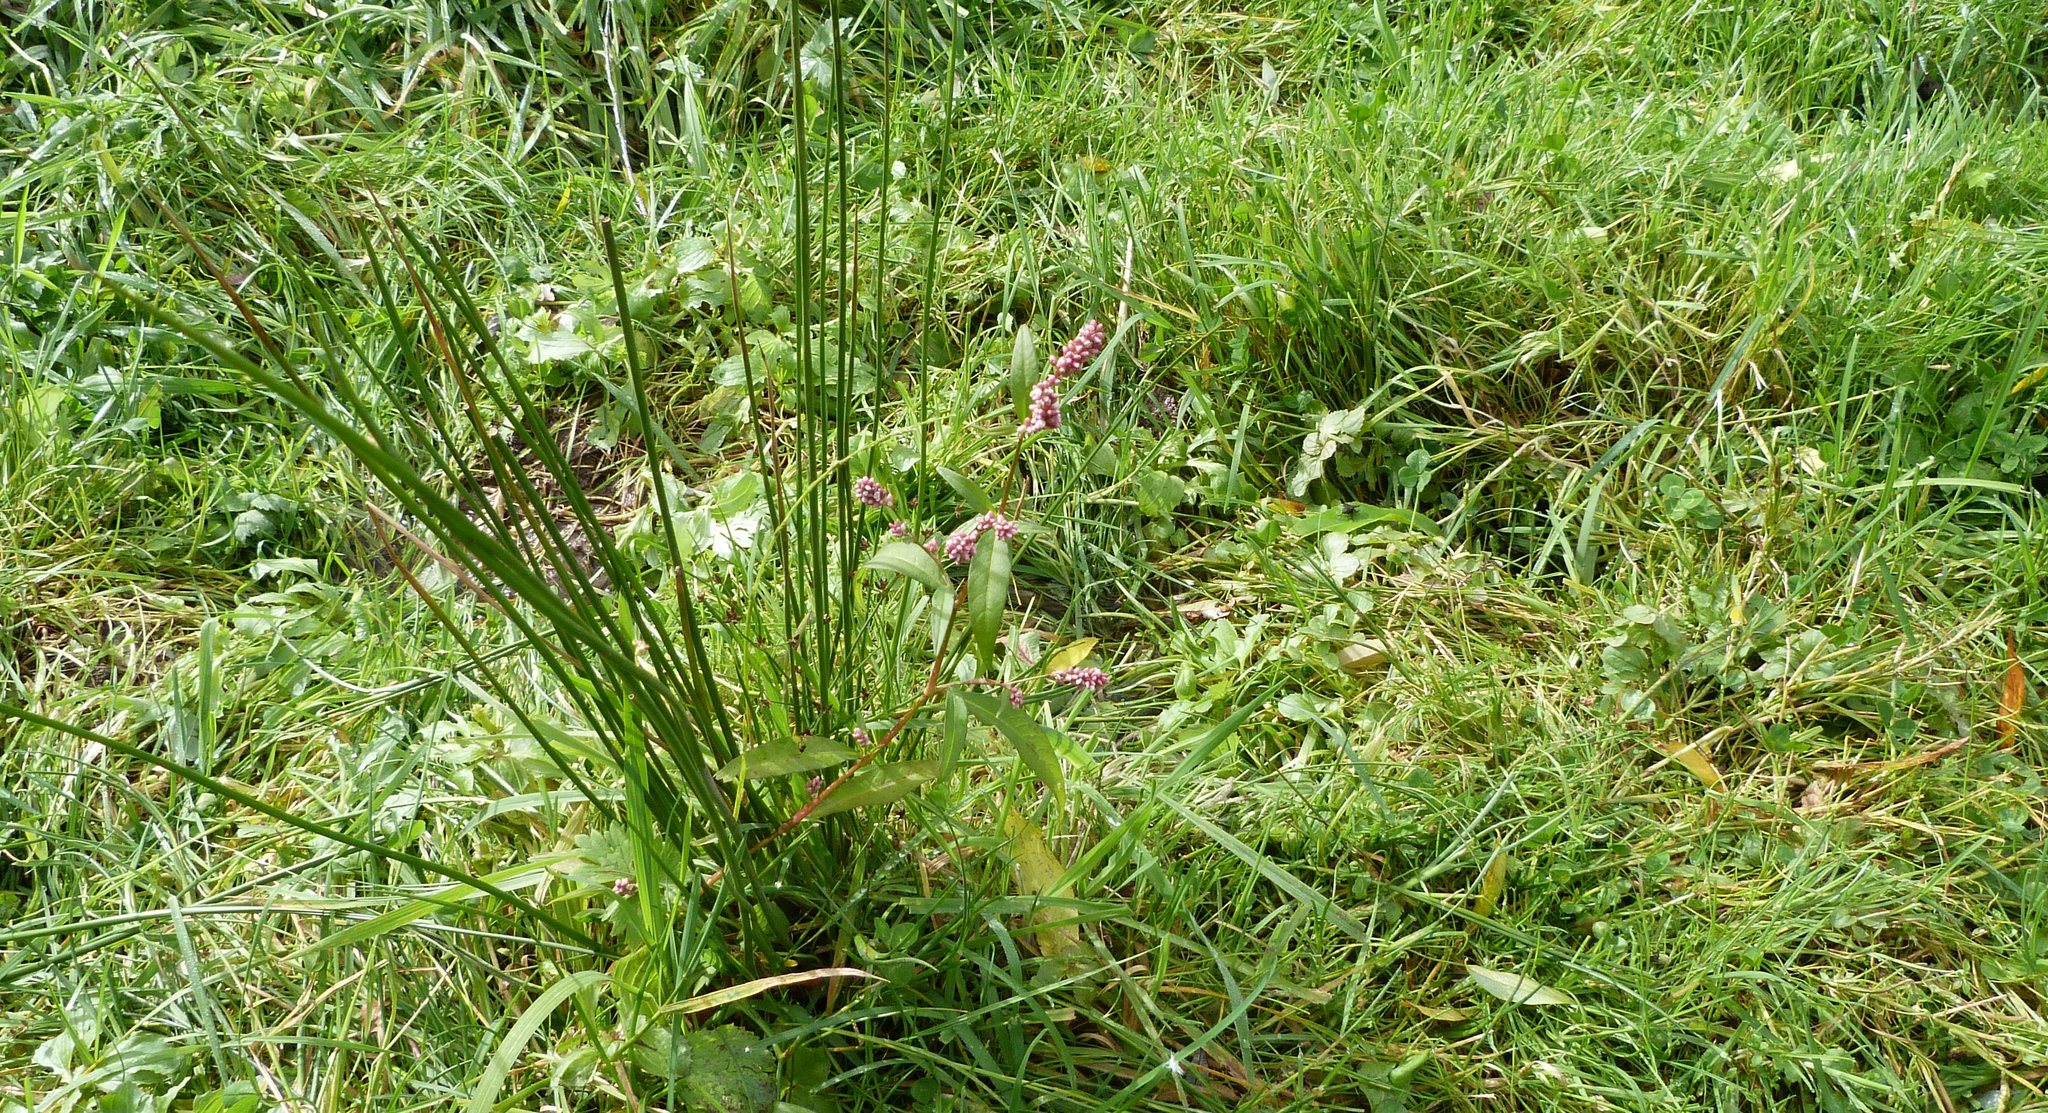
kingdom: Plantae
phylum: Tracheophyta
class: Magnoliopsida
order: Caryophyllales
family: Polygonaceae
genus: Persicaria
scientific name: Persicaria maculosa
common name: Redshank
